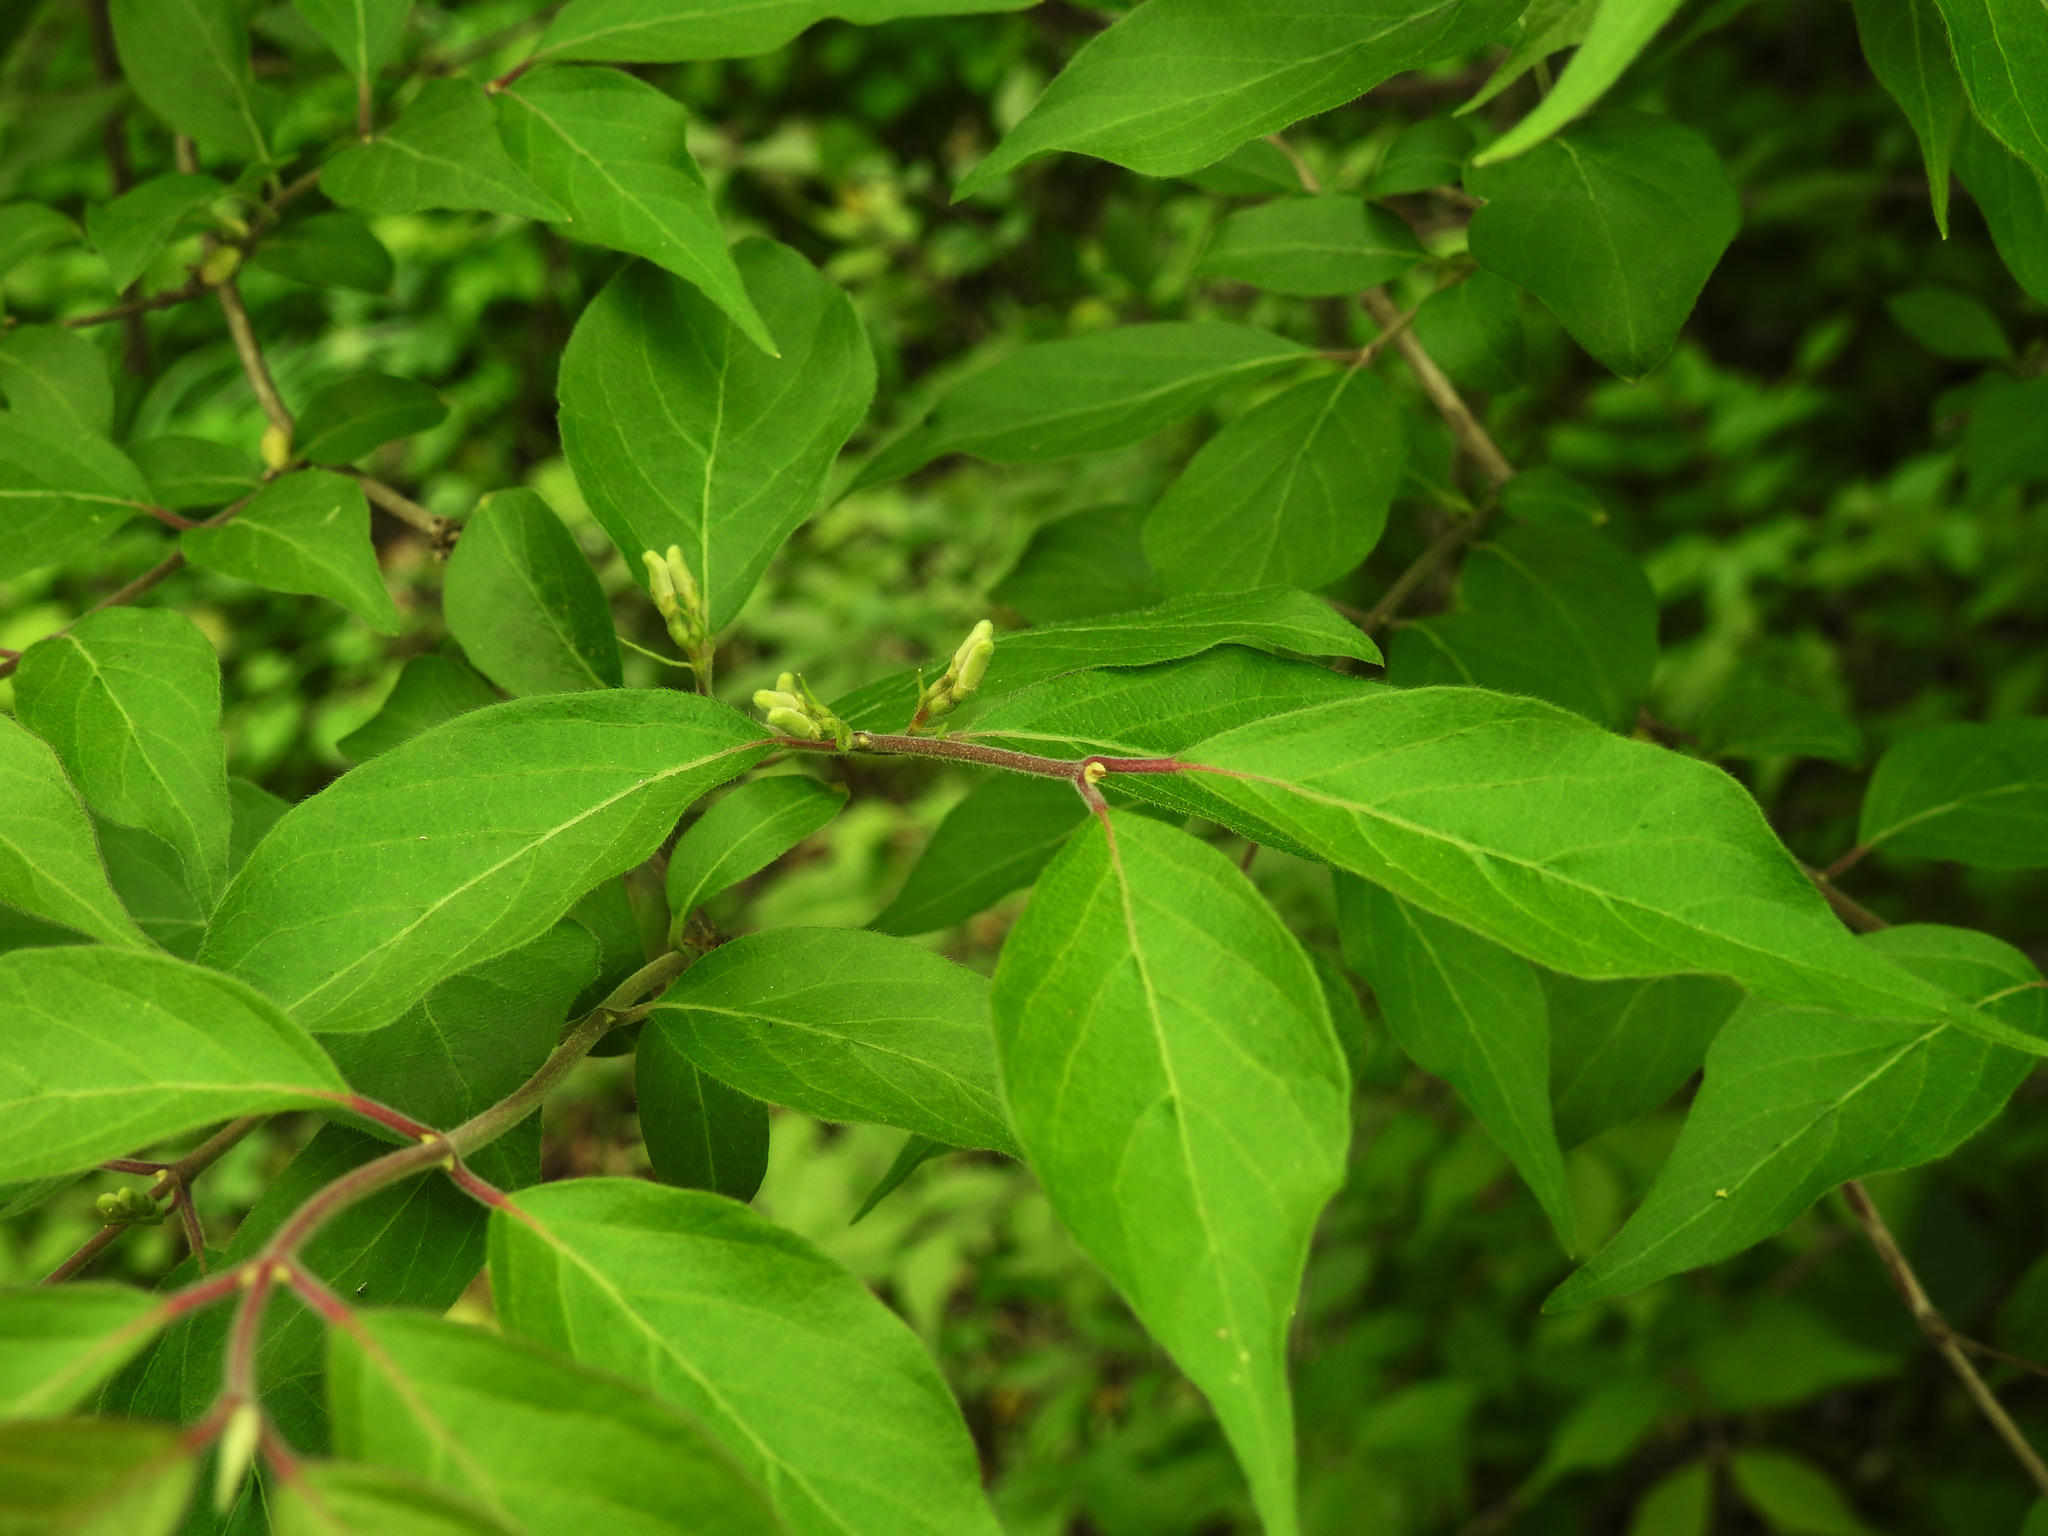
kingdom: Plantae
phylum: Tracheophyta
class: Magnoliopsida
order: Dipsacales
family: Caprifoliaceae
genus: Lonicera
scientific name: Lonicera maackii
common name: Amur honeysuckle
